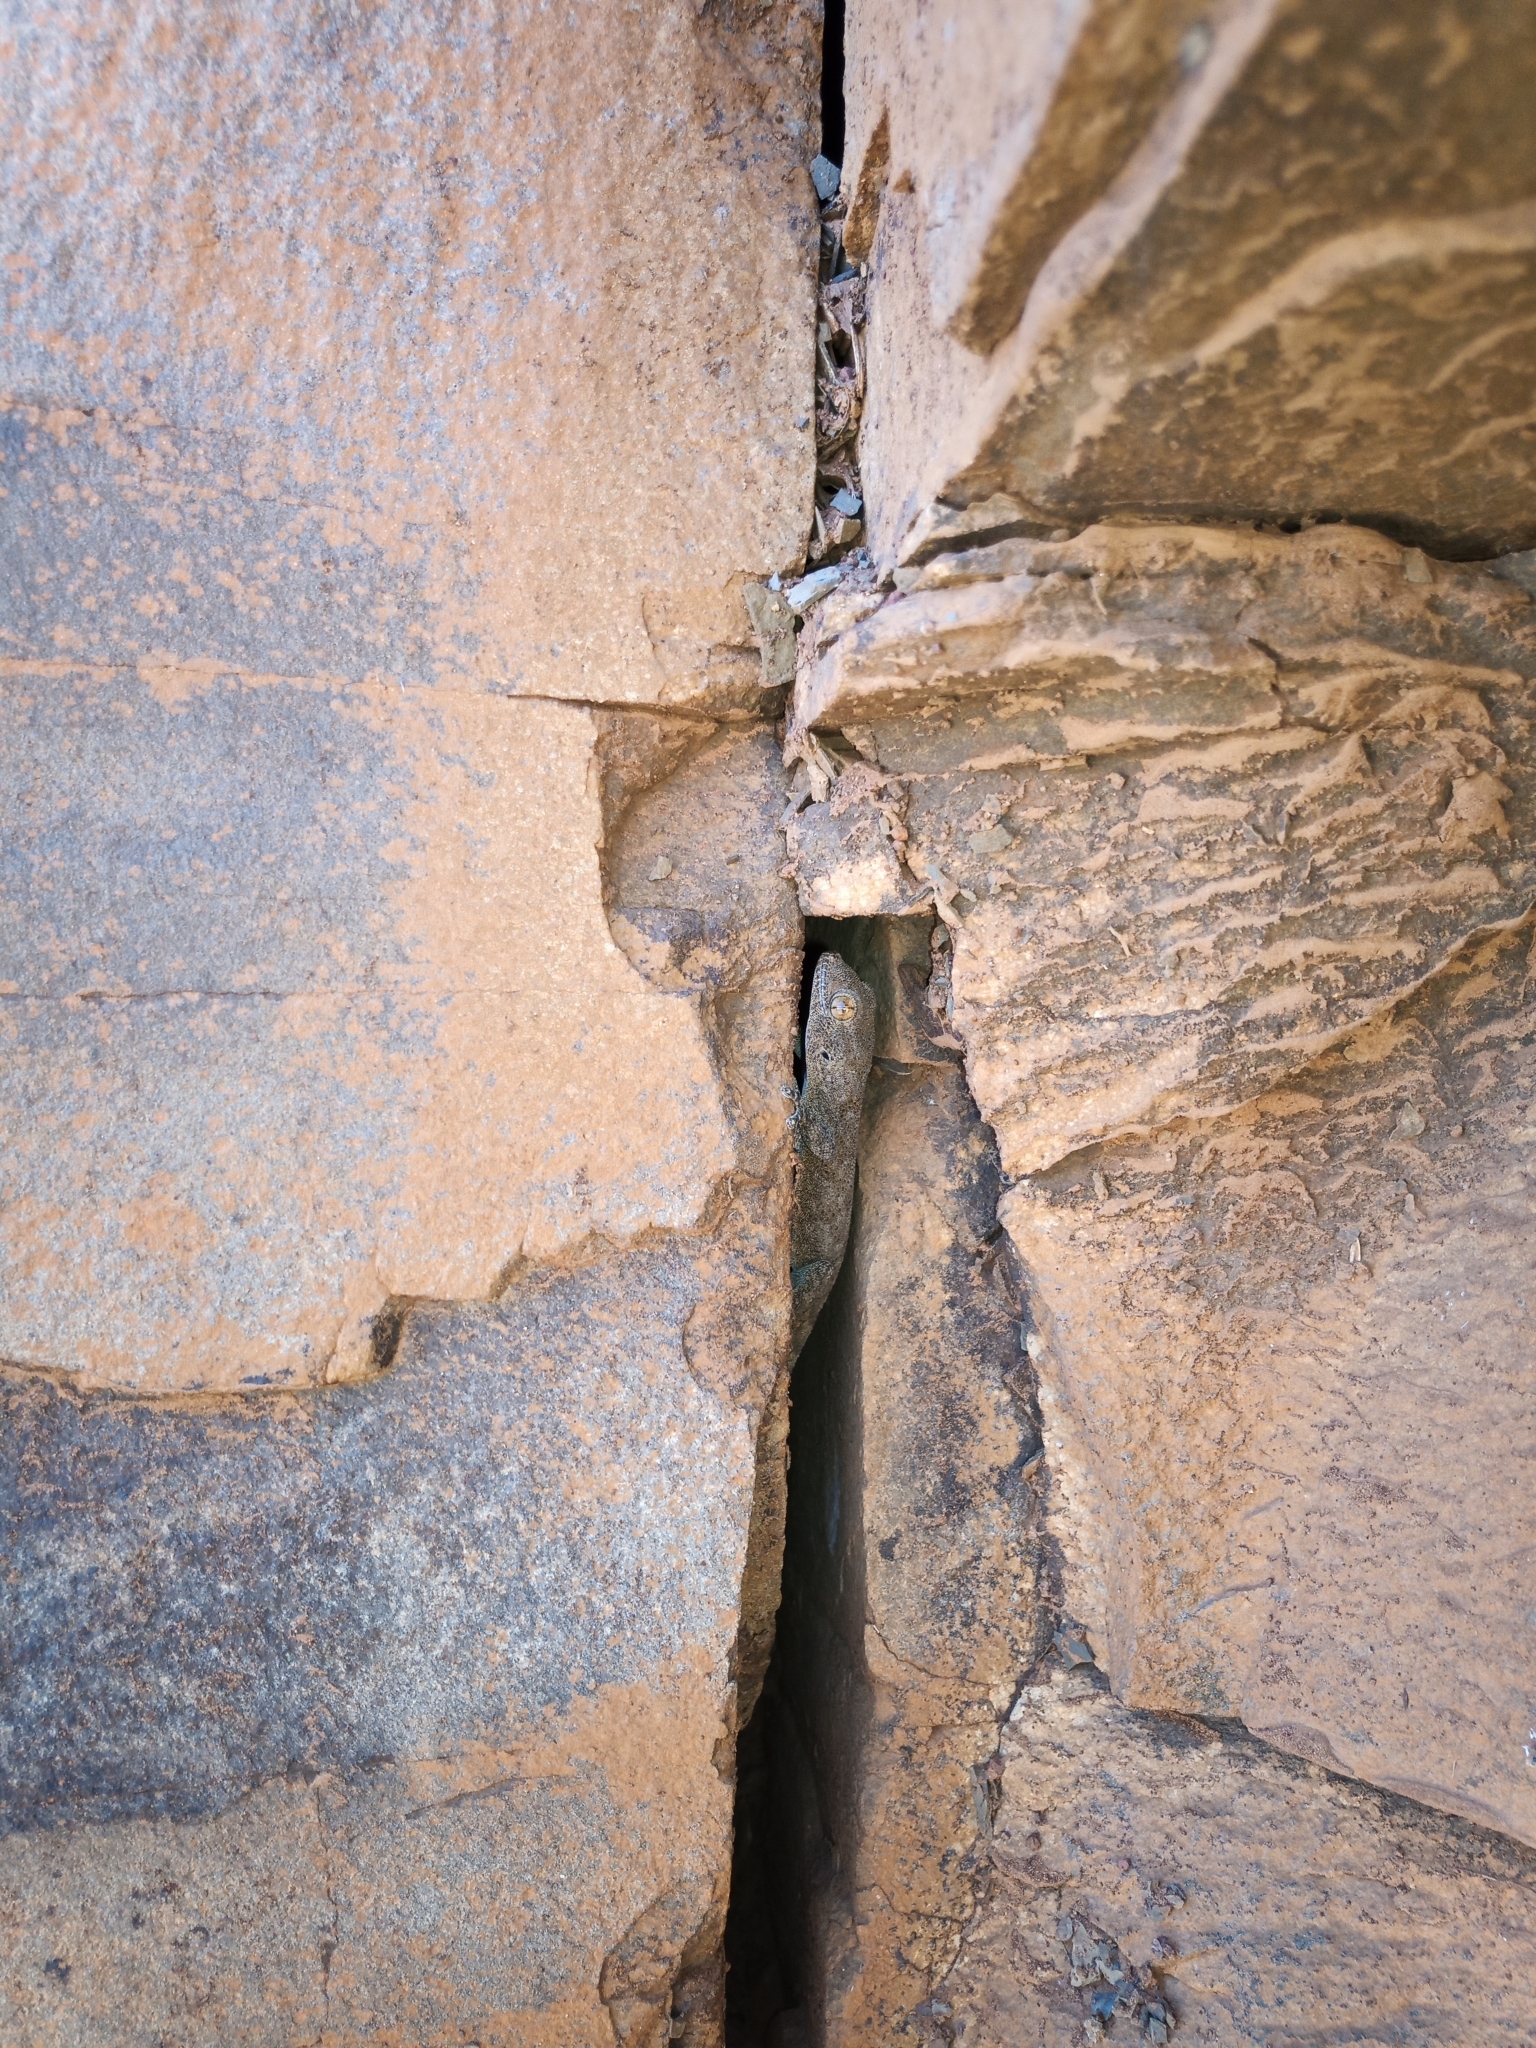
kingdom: Animalia
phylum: Chordata
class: Squamata
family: Gekkonidae
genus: Pachydactylus
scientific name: Pachydactylus kladaroderma
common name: Thin-skinned gecko
